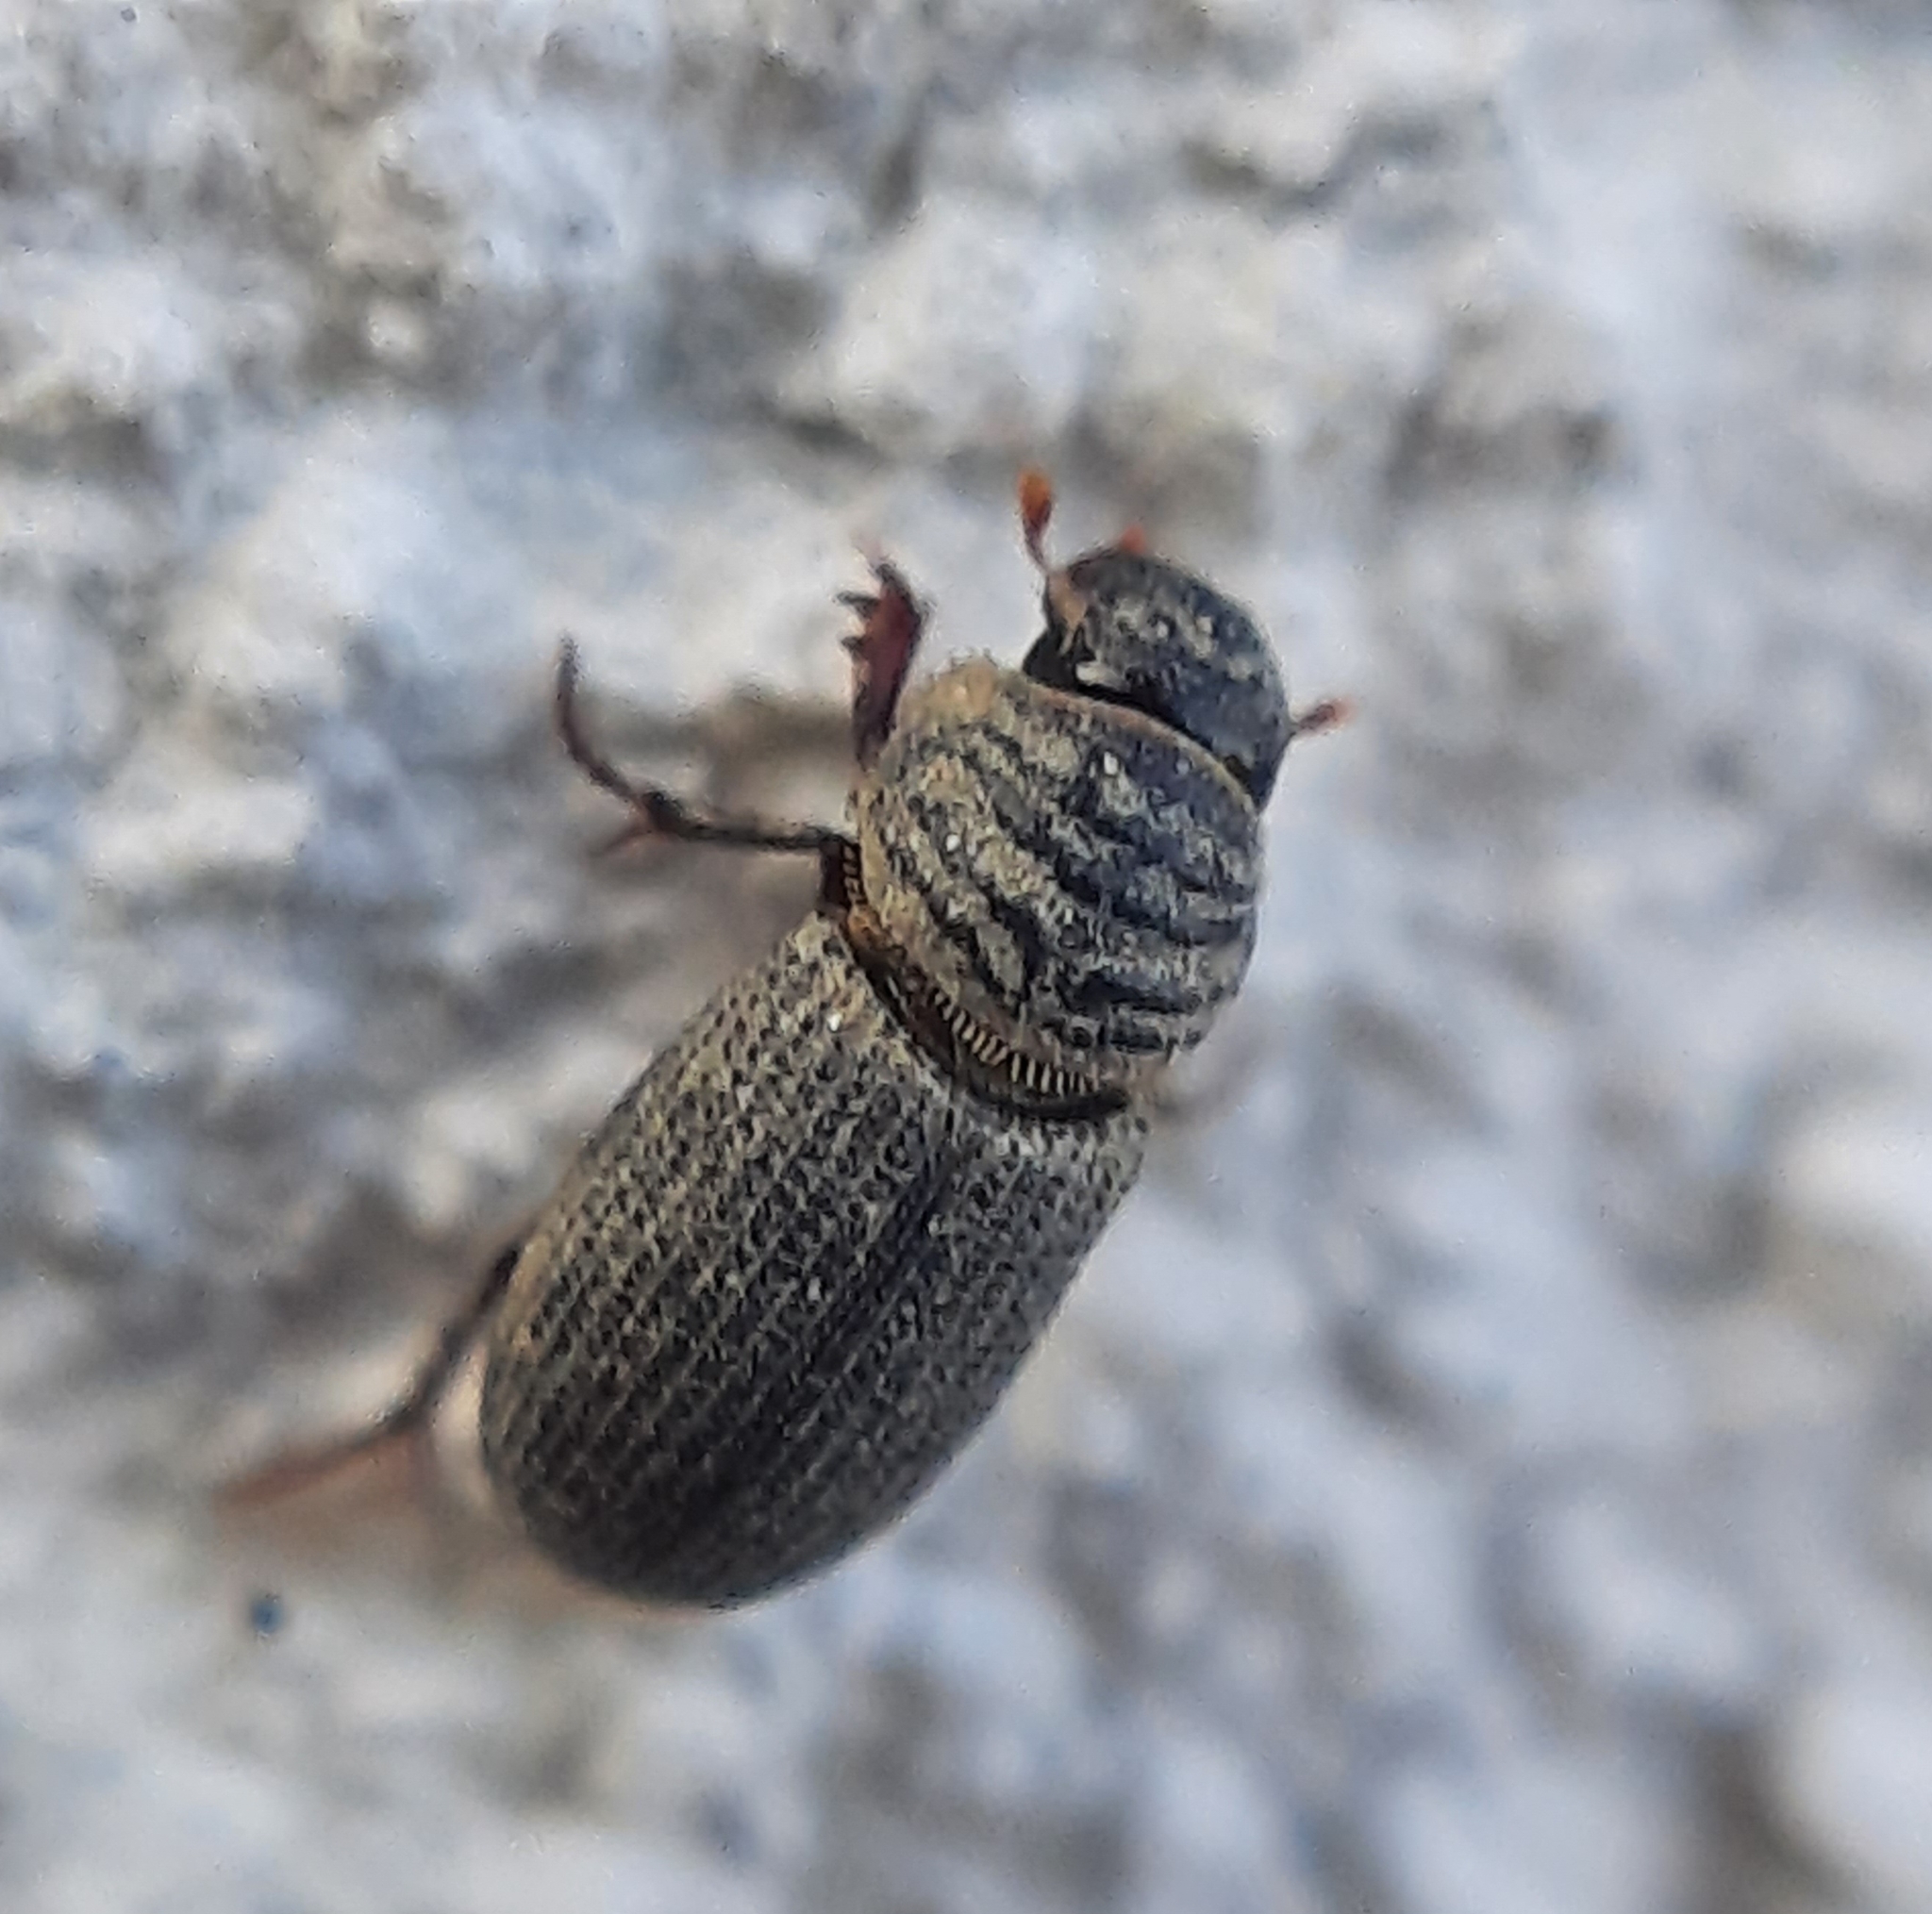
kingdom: Animalia
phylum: Arthropoda
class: Insecta
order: Coleoptera
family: Scarabaeidae
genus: Rhyssemus
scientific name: Rhyssemus
